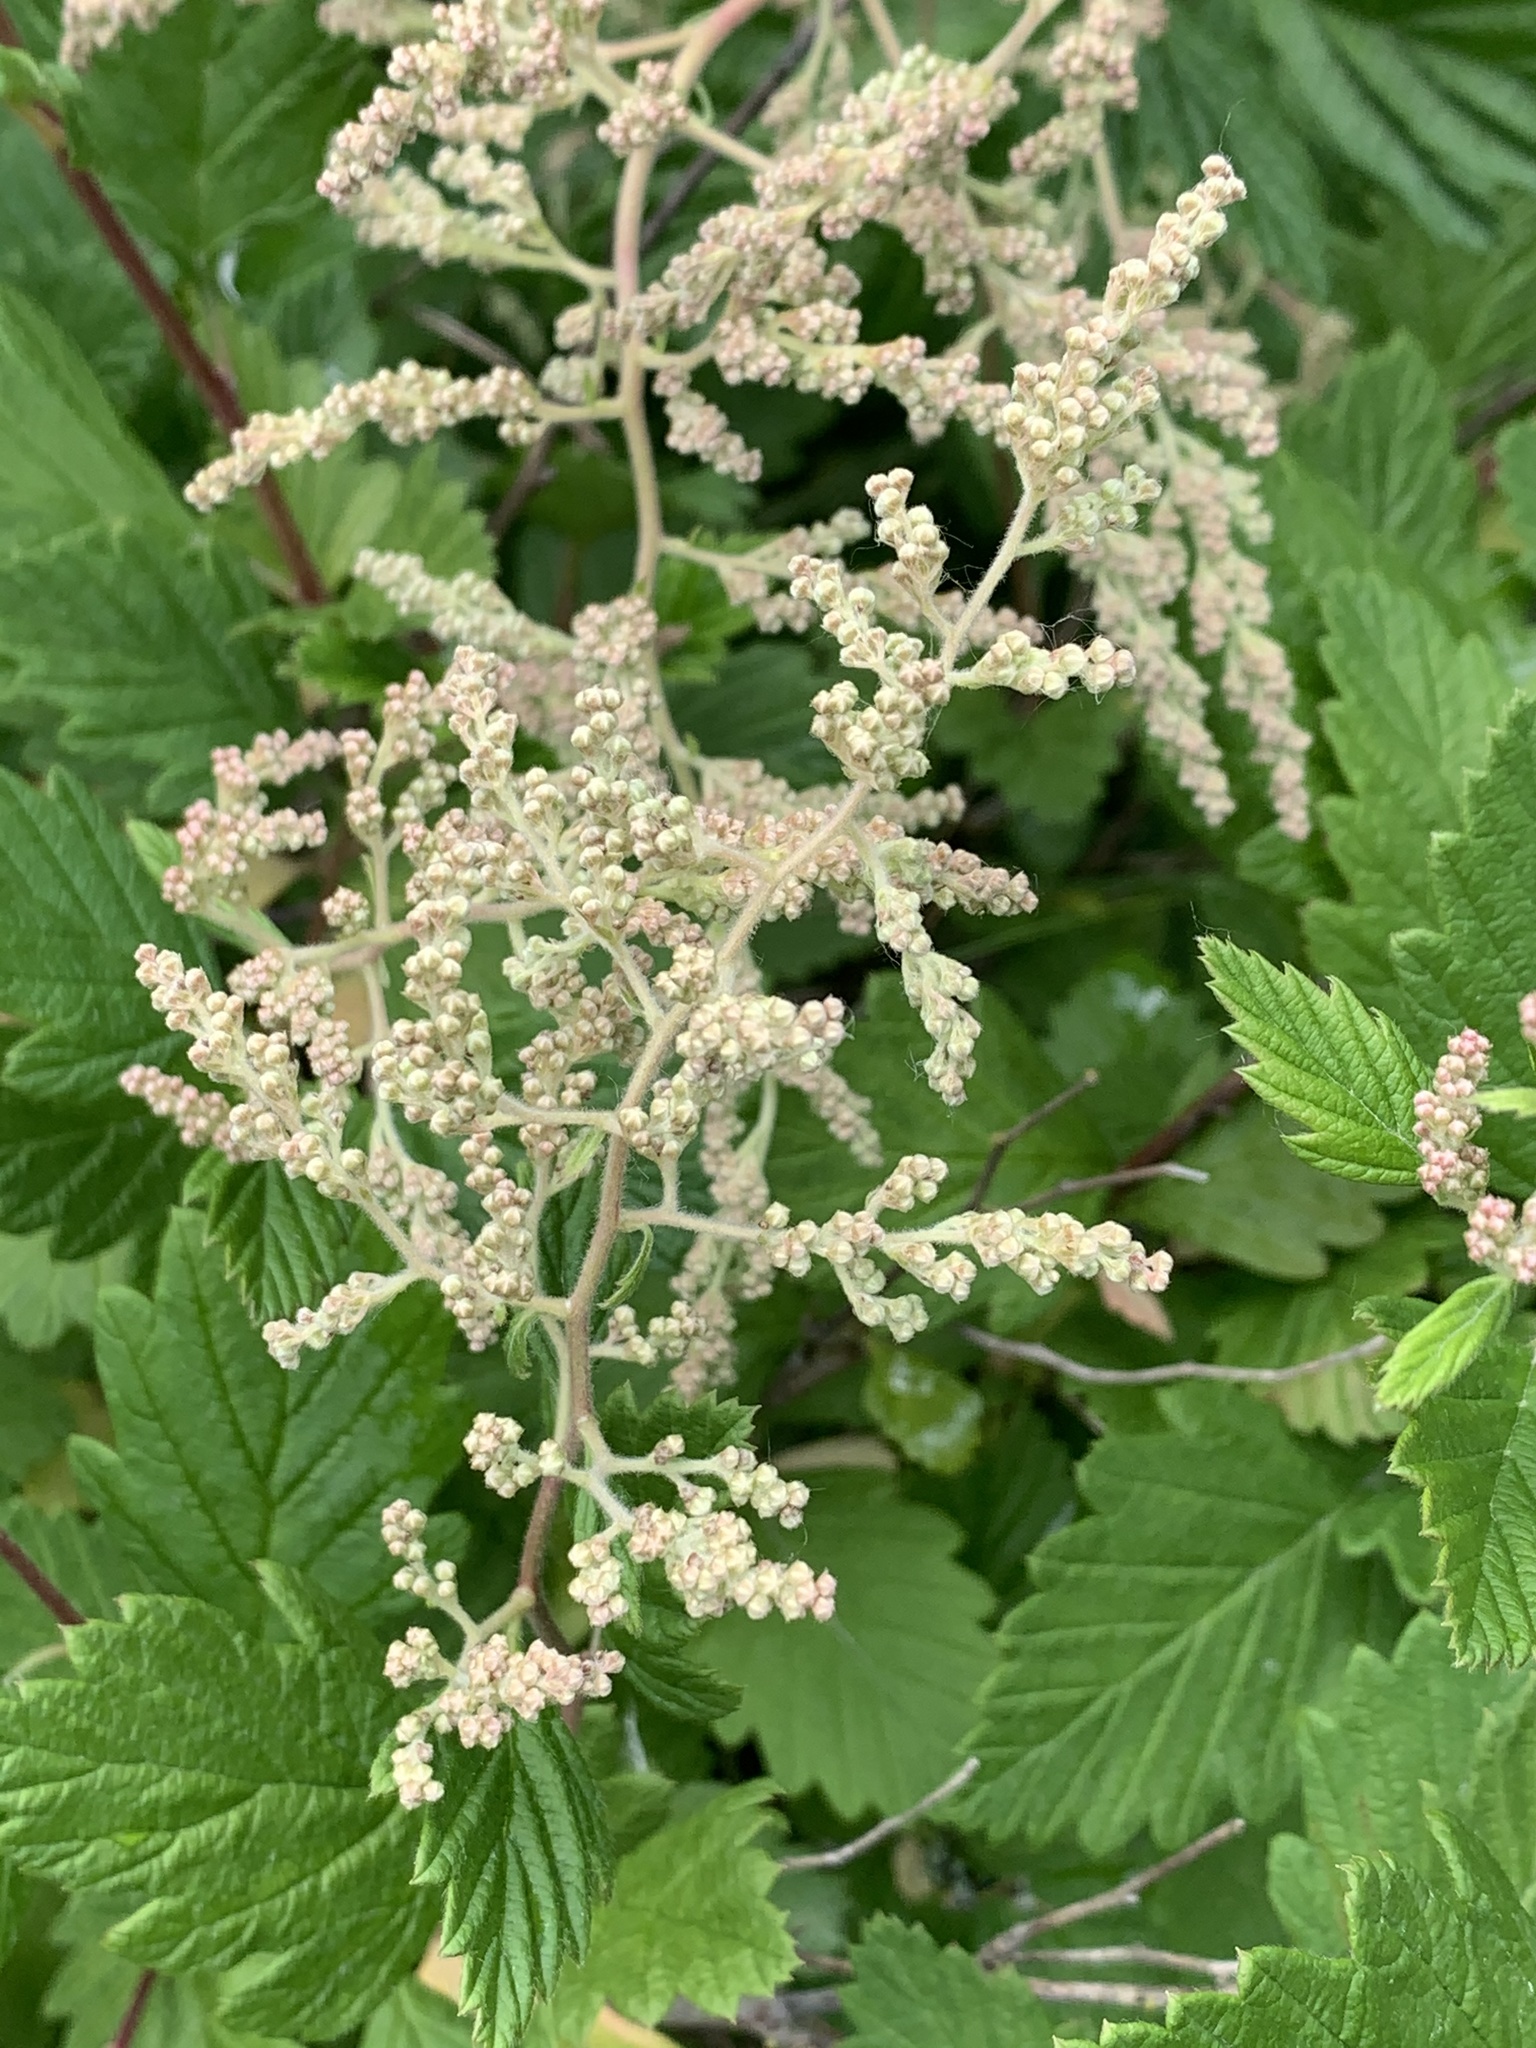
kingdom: Plantae
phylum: Tracheophyta
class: Magnoliopsida
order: Rosales
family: Rosaceae
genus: Holodiscus
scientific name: Holodiscus discolor
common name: Oceanspray
